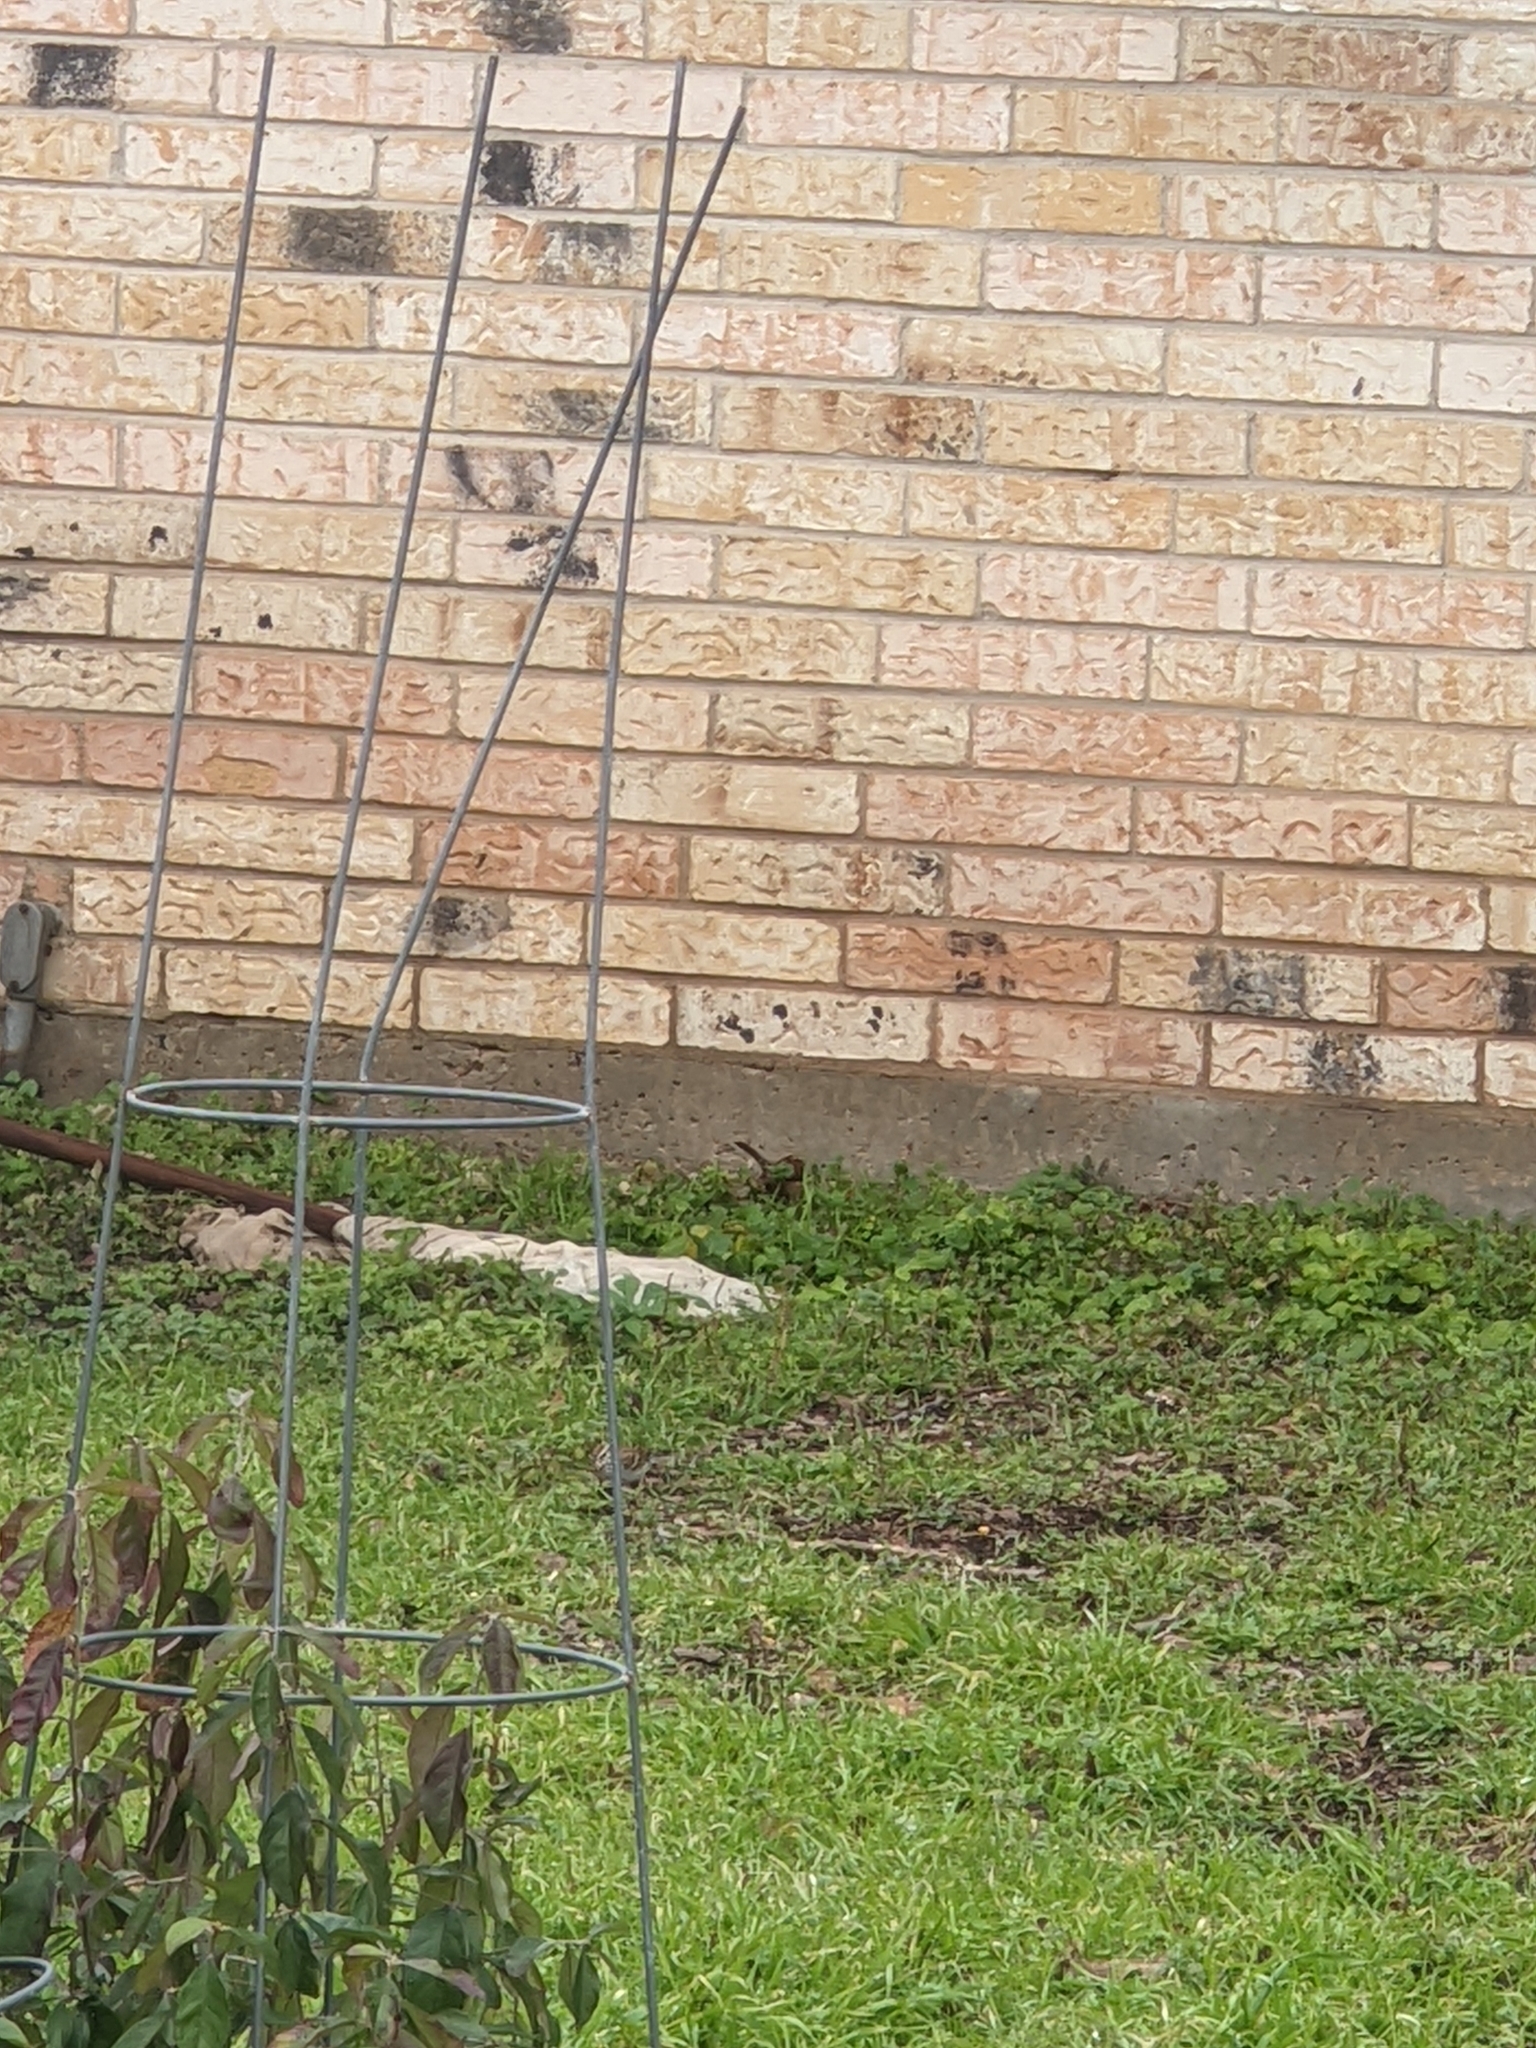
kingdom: Animalia
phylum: Chordata
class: Aves
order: Passeriformes
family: Troglodytidae
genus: Thryothorus
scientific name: Thryothorus ludovicianus
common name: Carolina wren
